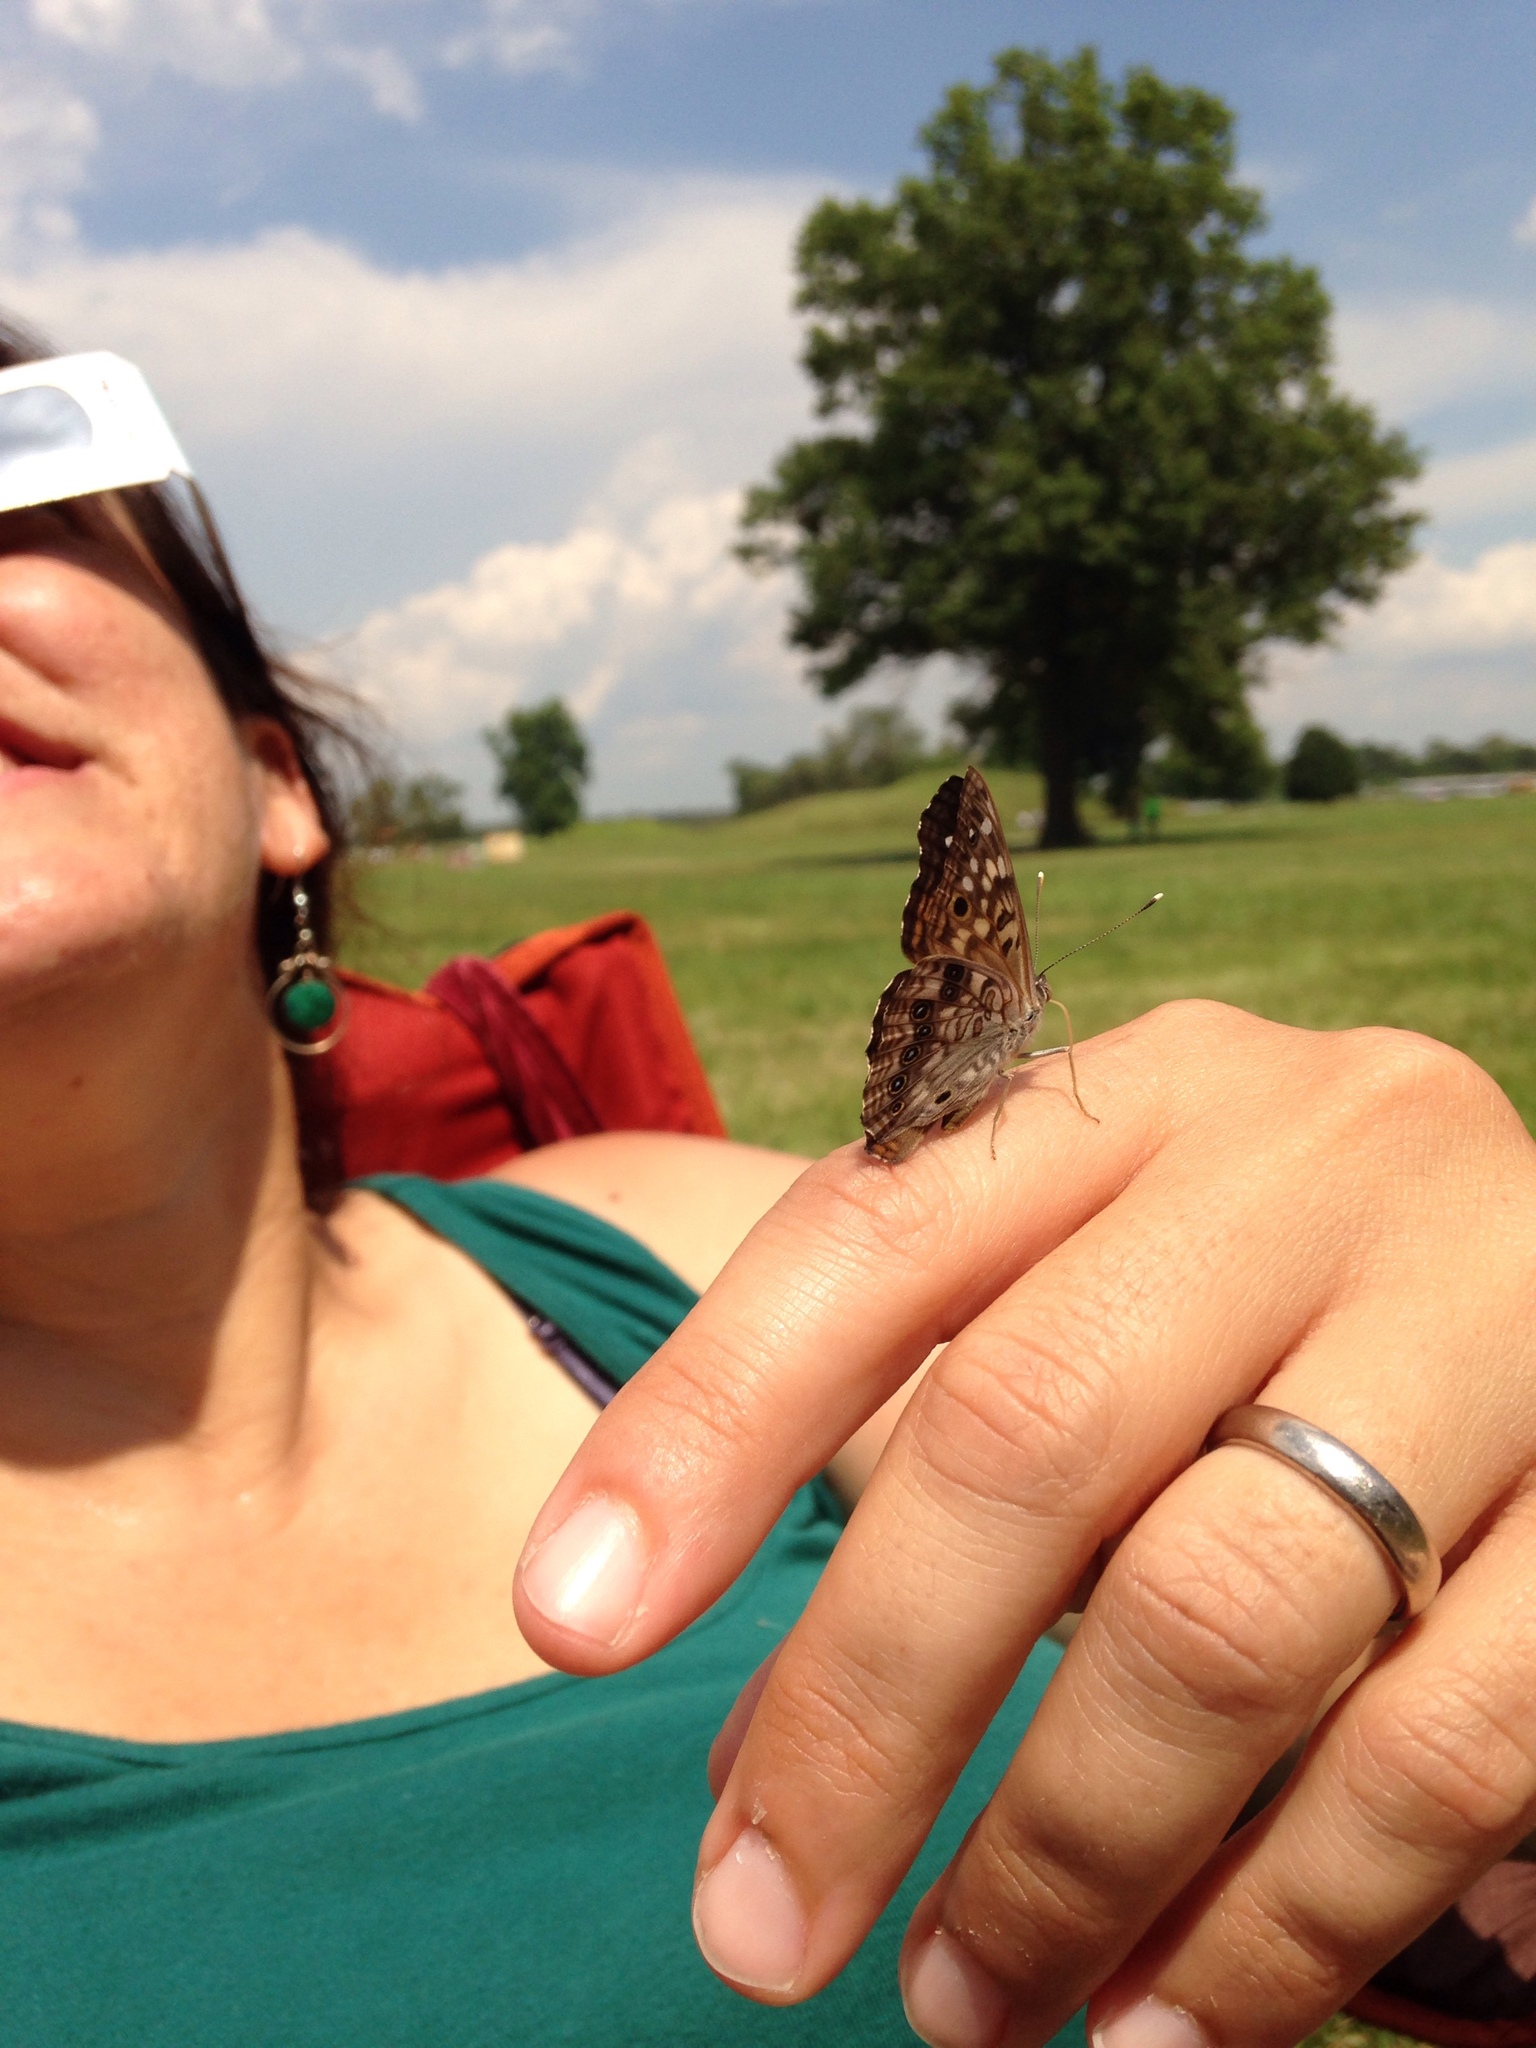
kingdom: Animalia
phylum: Arthropoda
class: Insecta
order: Lepidoptera
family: Nymphalidae
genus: Asterocampa
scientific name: Asterocampa celtis
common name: Hackberry emperor
